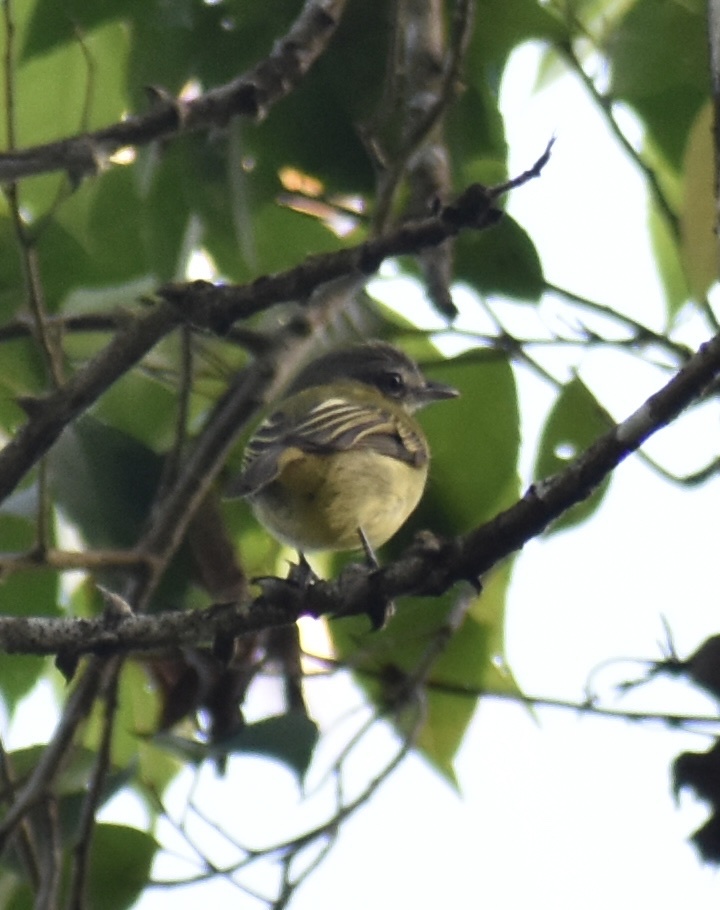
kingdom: Animalia
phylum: Chordata
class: Aves
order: Passeriformes
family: Tyrannidae
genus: Tolmomyias
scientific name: Tolmomyias sulphurescens
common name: Yellow-olive flycatcher
